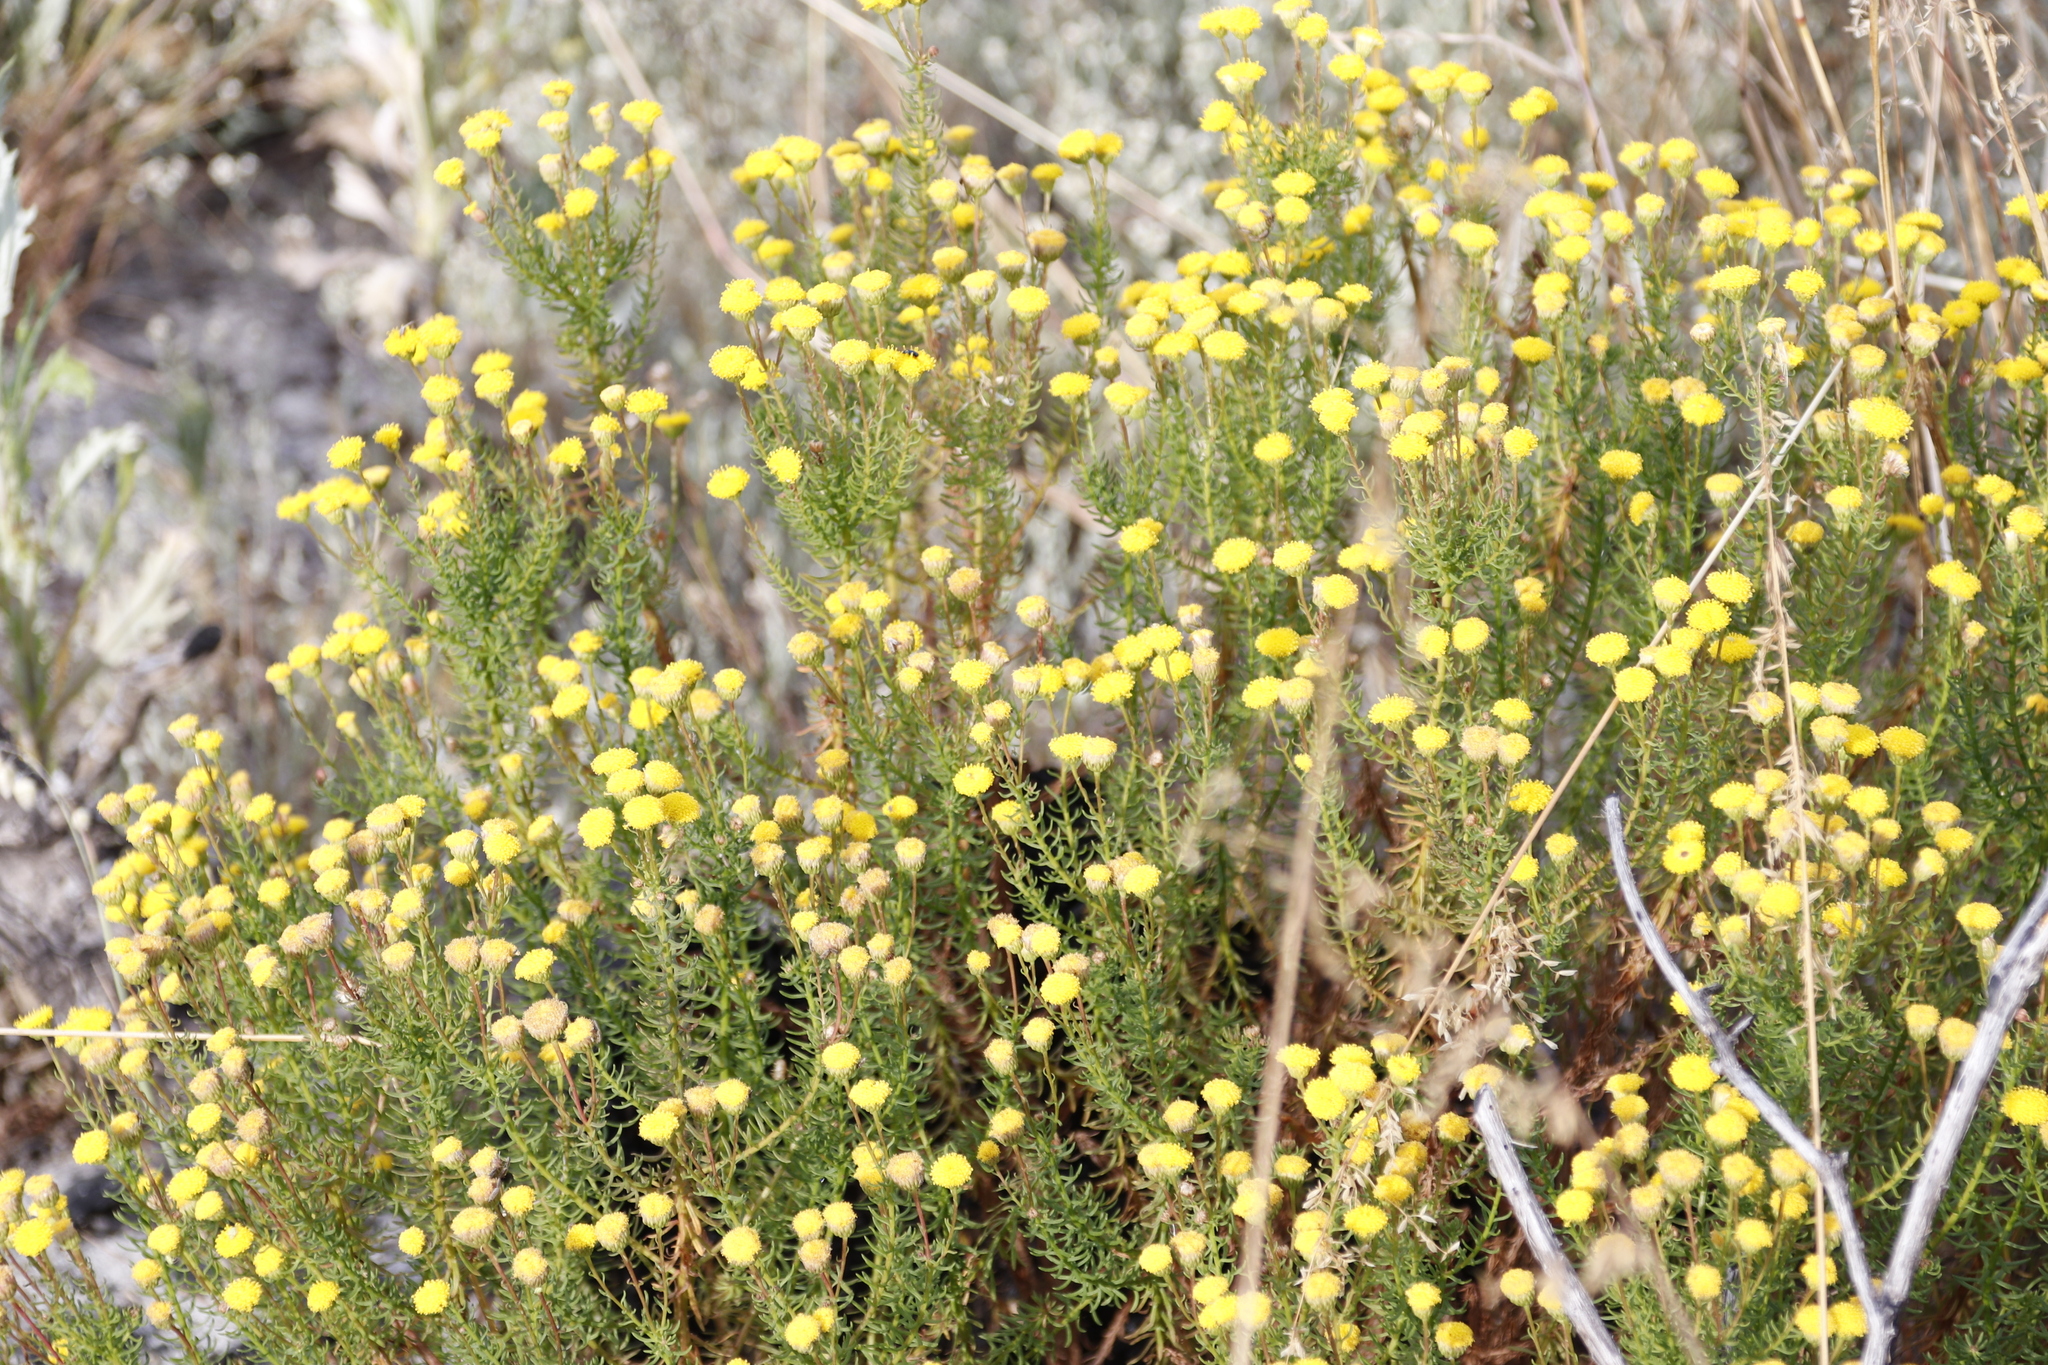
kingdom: Plantae
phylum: Tracheophyta
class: Magnoliopsida
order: Asterales
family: Asteraceae
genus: Chrysocoma
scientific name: Chrysocoma cernua
